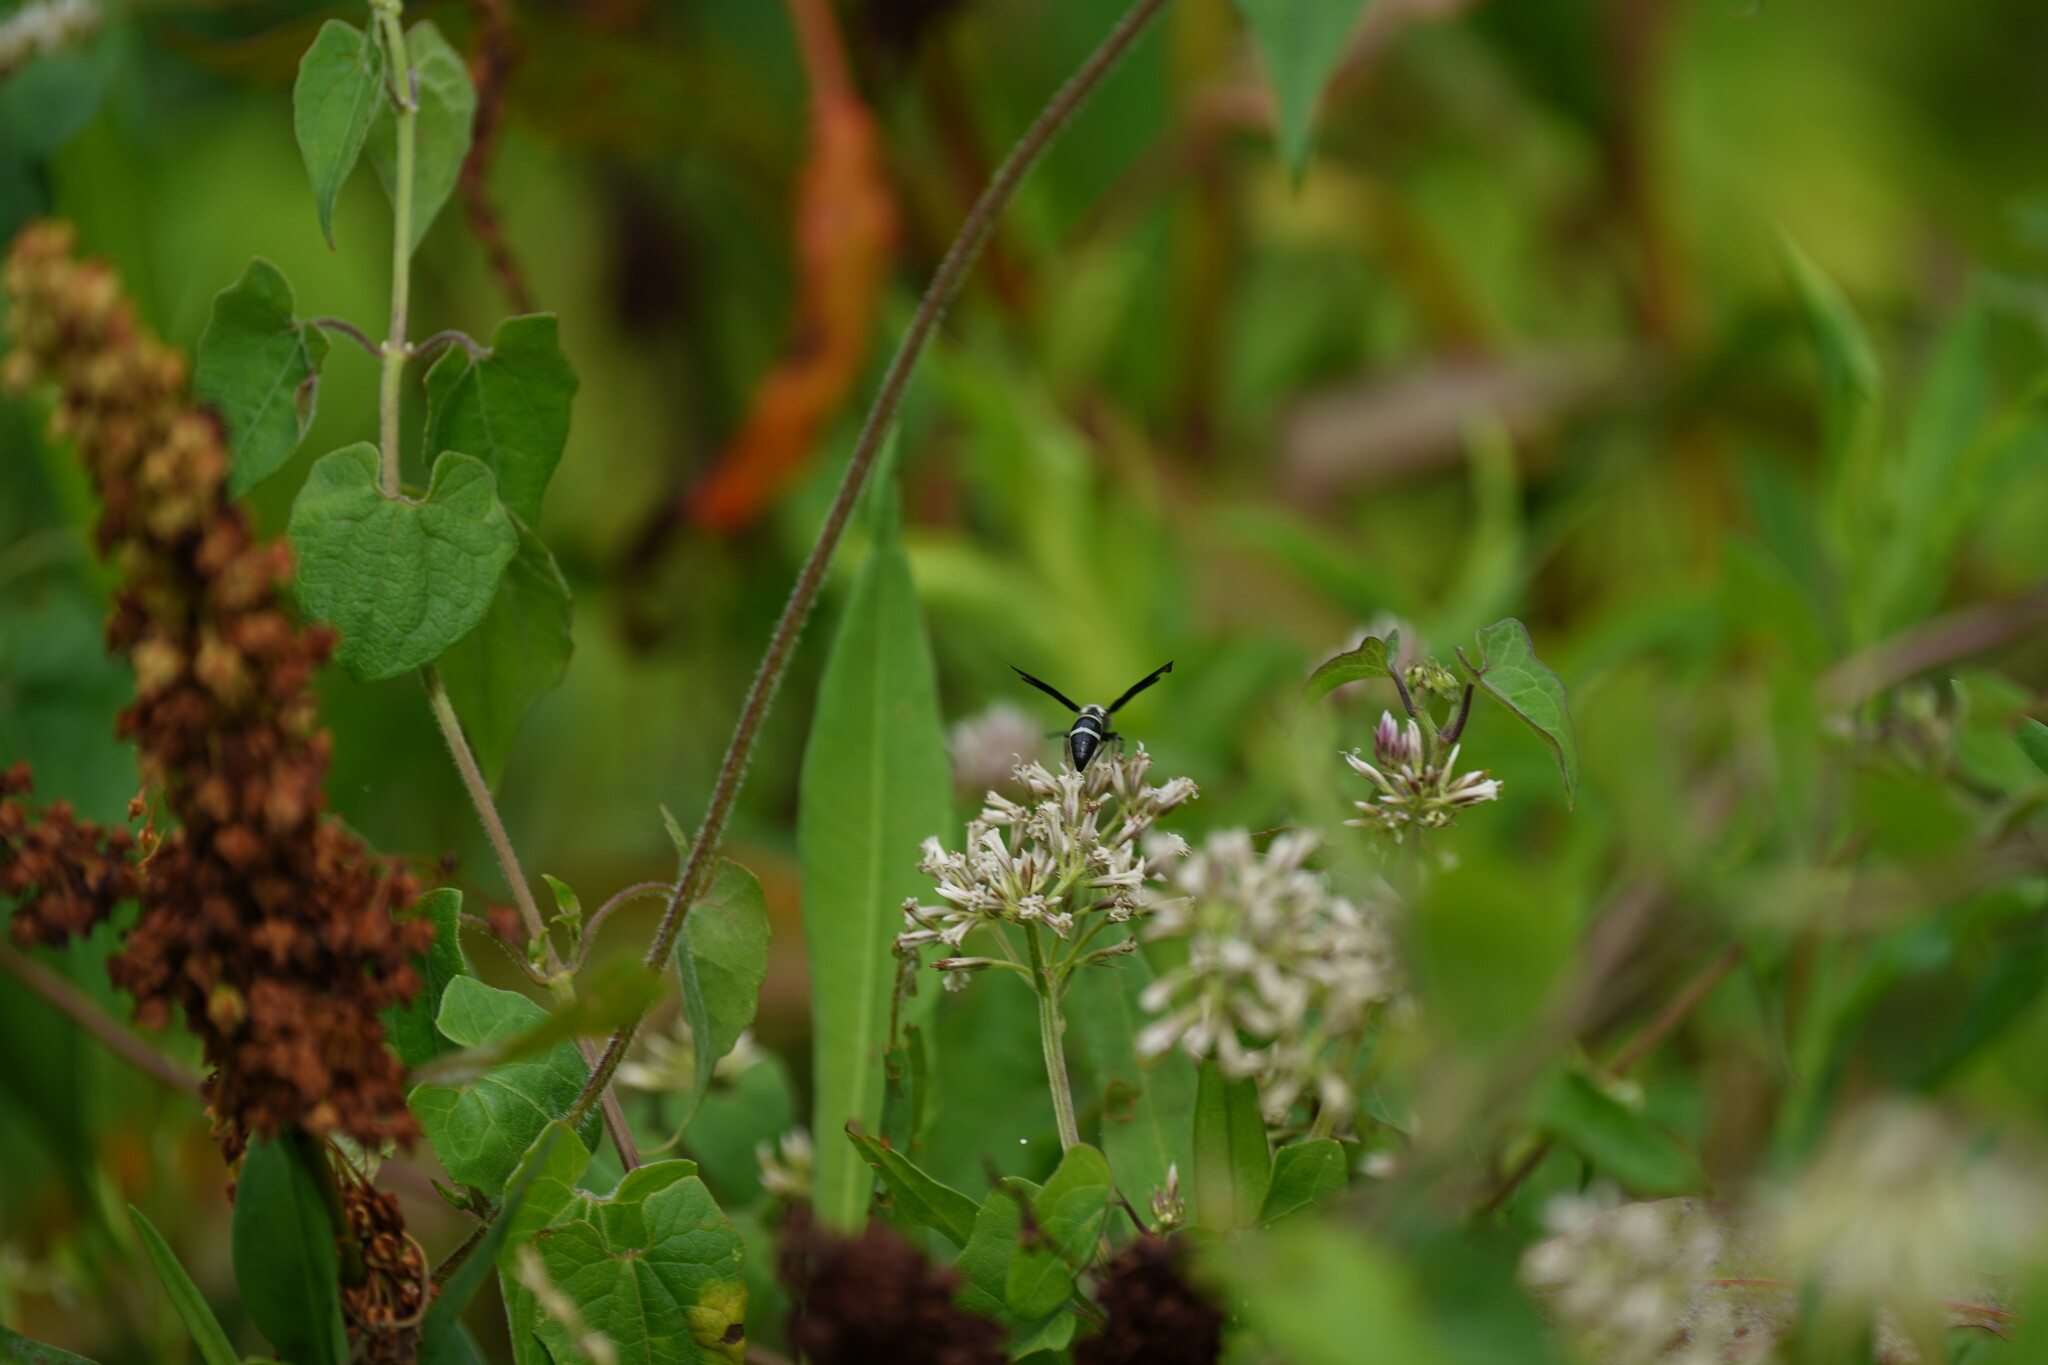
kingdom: Animalia
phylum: Arthropoda
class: Insecta
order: Hymenoptera
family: Eumenidae
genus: Pseudodynerus
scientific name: Pseudodynerus quadrisectus
